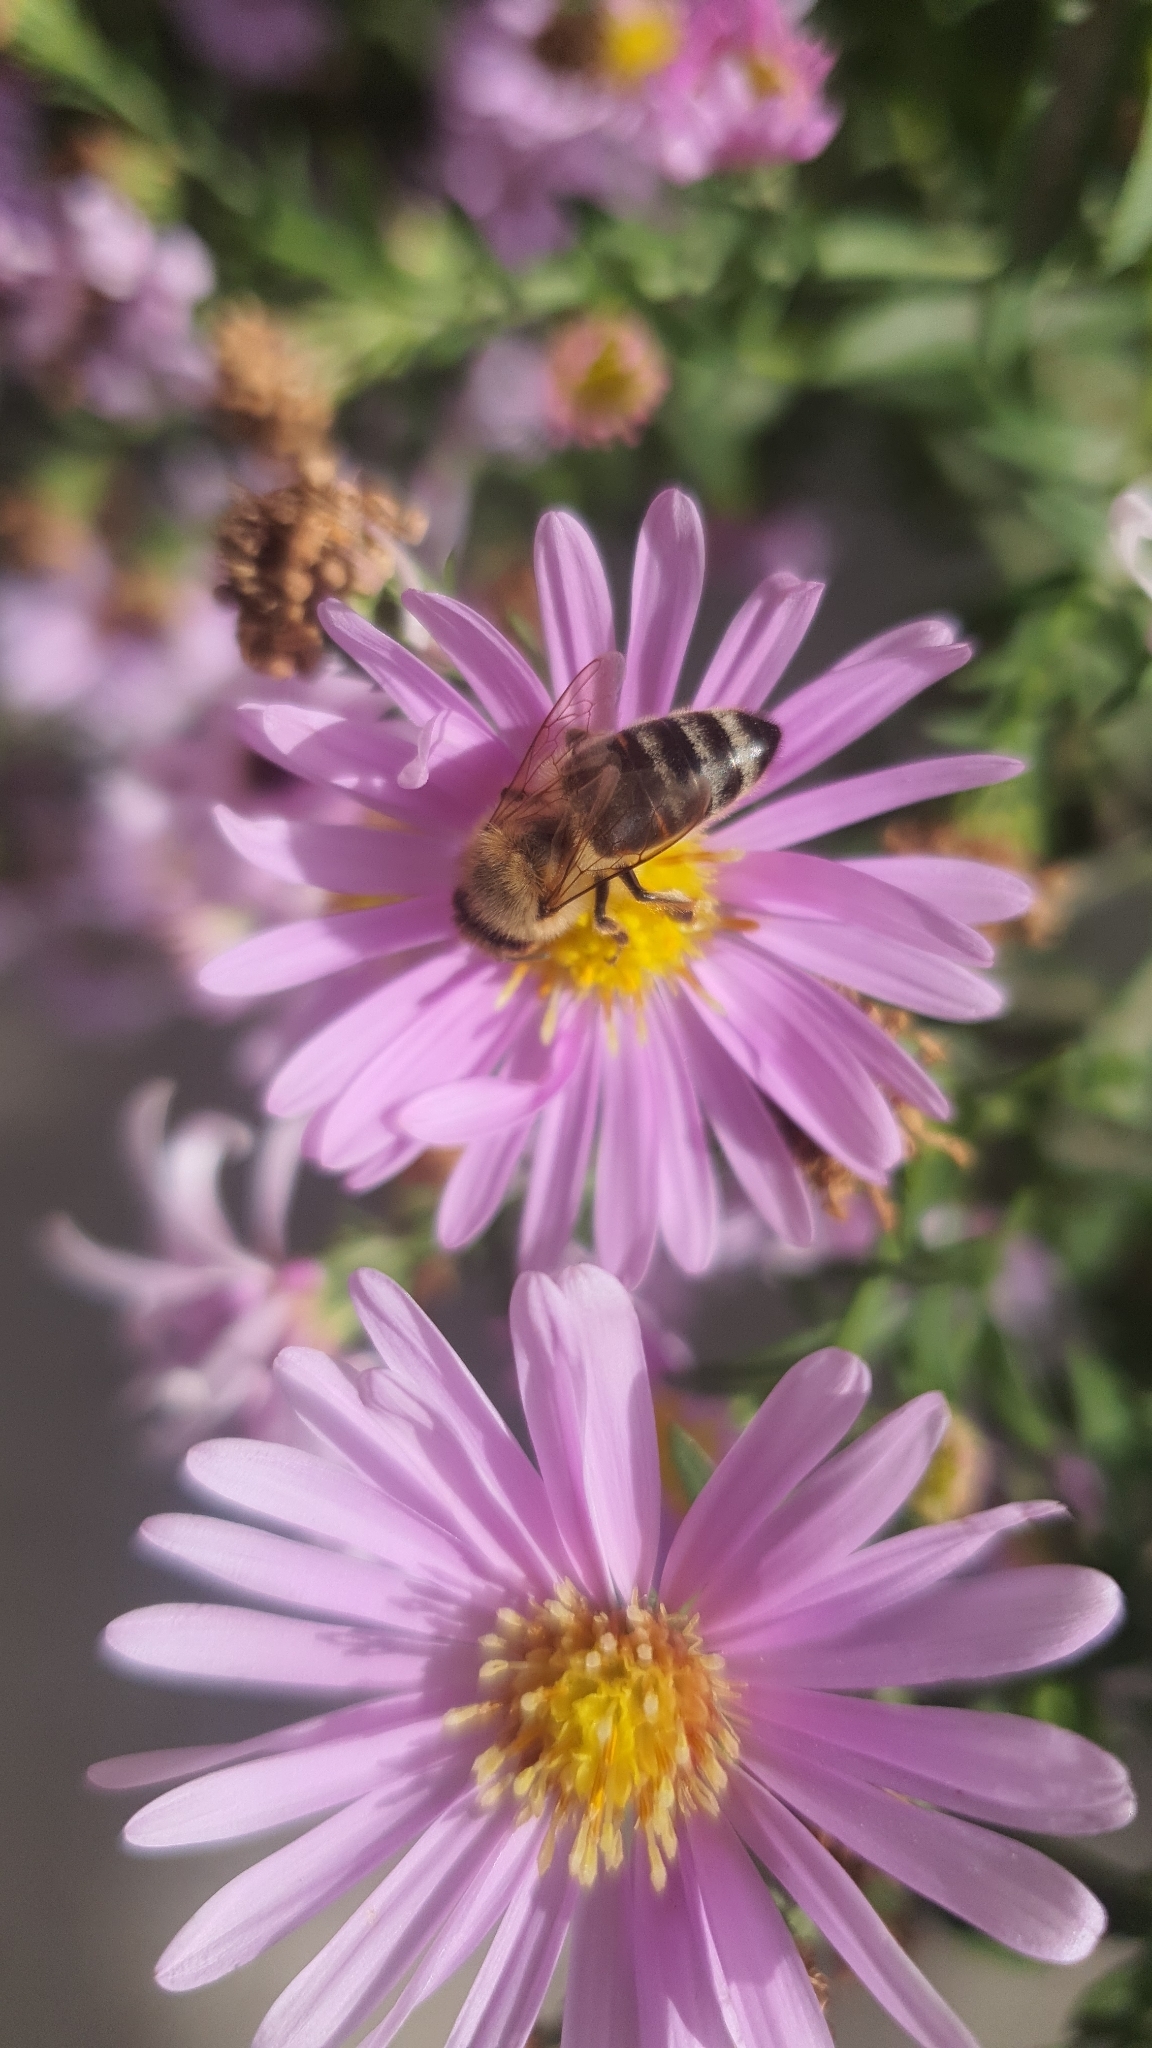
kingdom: Animalia
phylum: Arthropoda
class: Insecta
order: Hymenoptera
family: Apidae
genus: Apis
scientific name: Apis mellifera
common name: Honey bee
